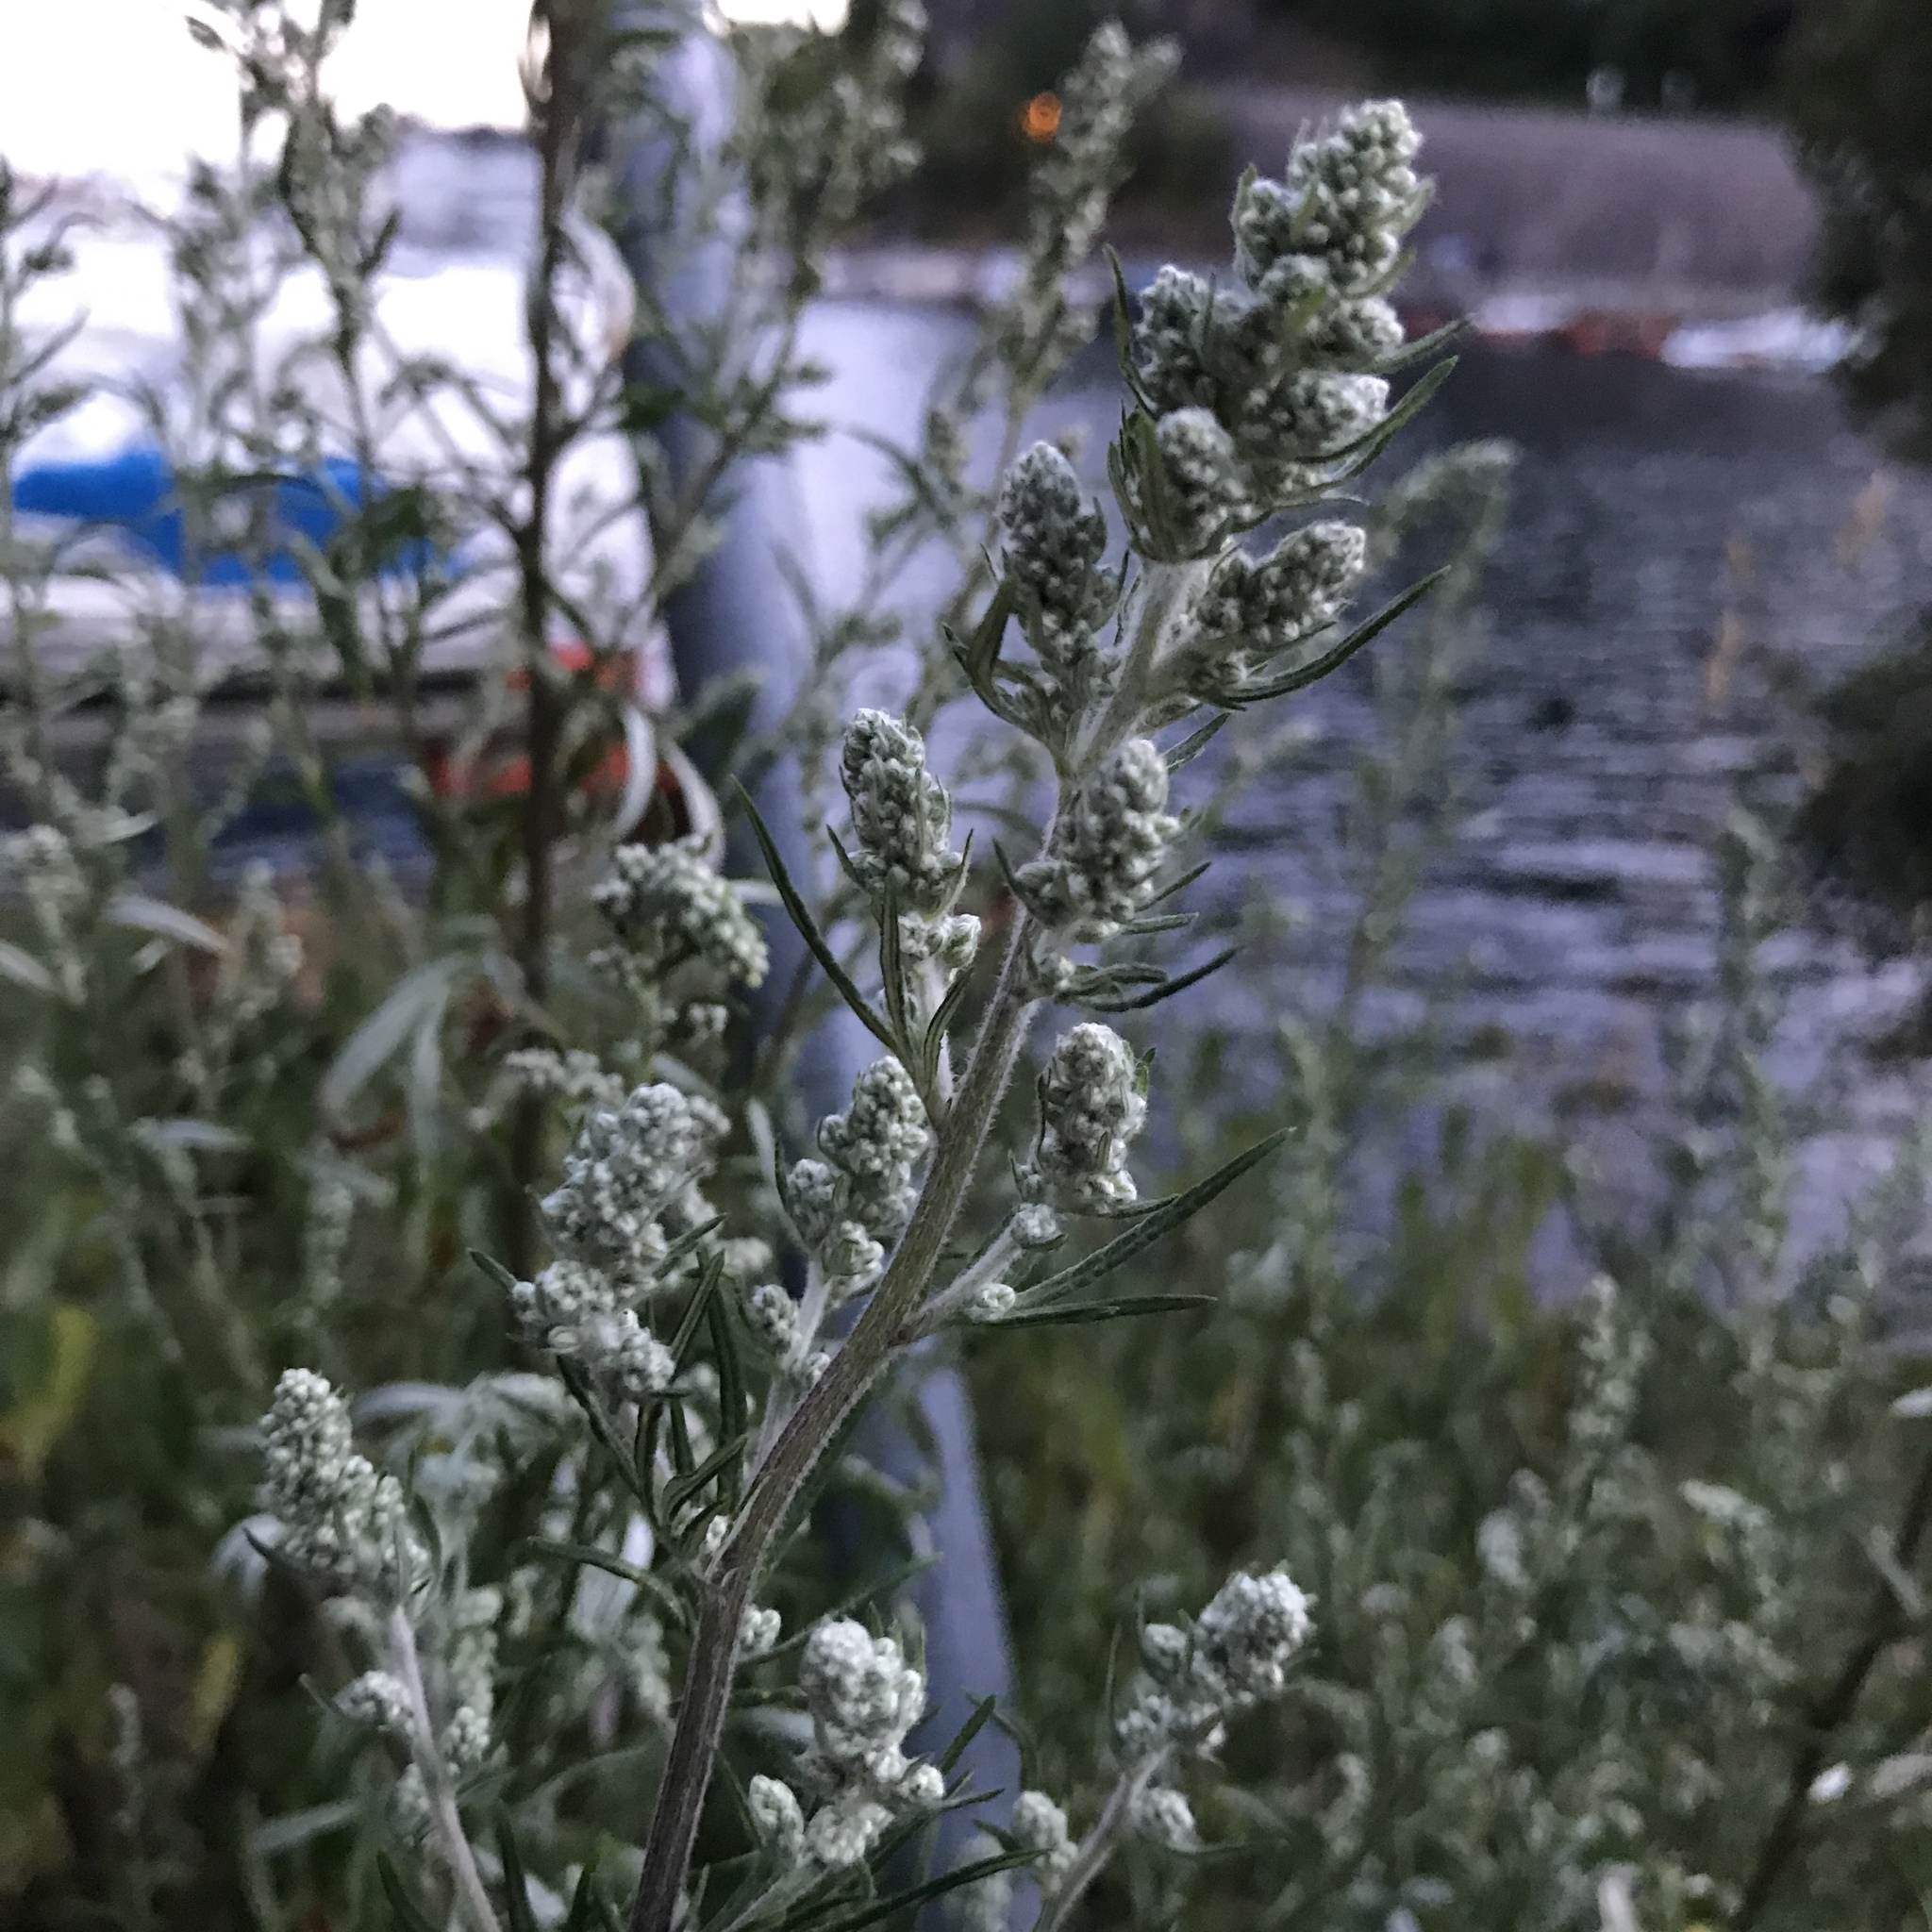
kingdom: Plantae
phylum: Tracheophyta
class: Magnoliopsida
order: Asterales
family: Asteraceae
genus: Artemisia
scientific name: Artemisia vulgaris
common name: Mugwort
